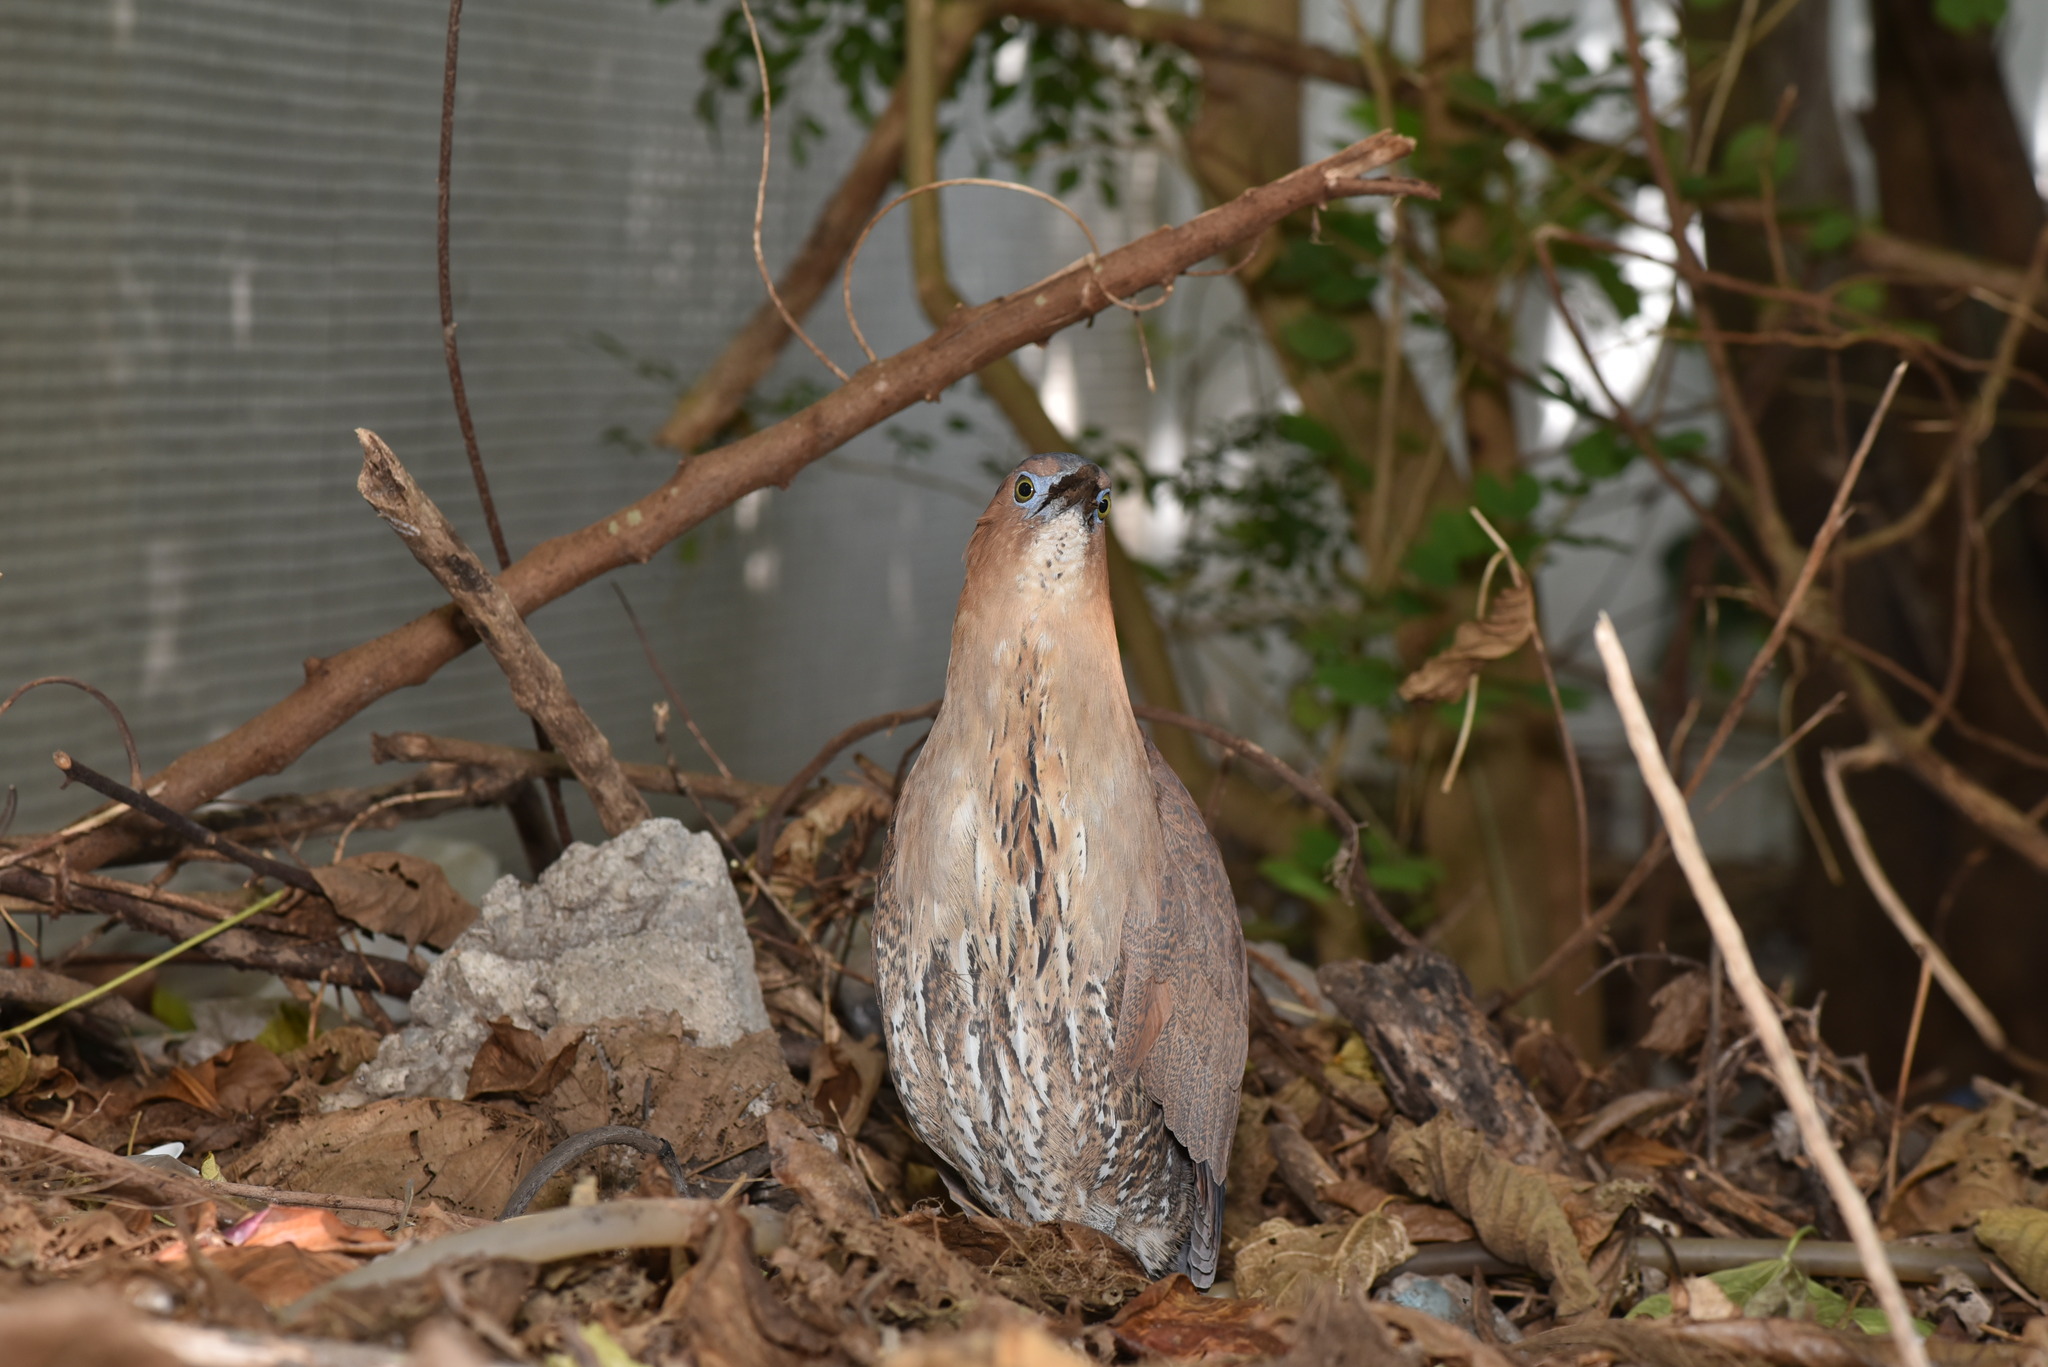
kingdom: Animalia
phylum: Chordata
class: Aves
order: Pelecaniformes
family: Ardeidae
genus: Gorsachius
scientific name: Gorsachius melanolophus
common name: Malayan night heron
